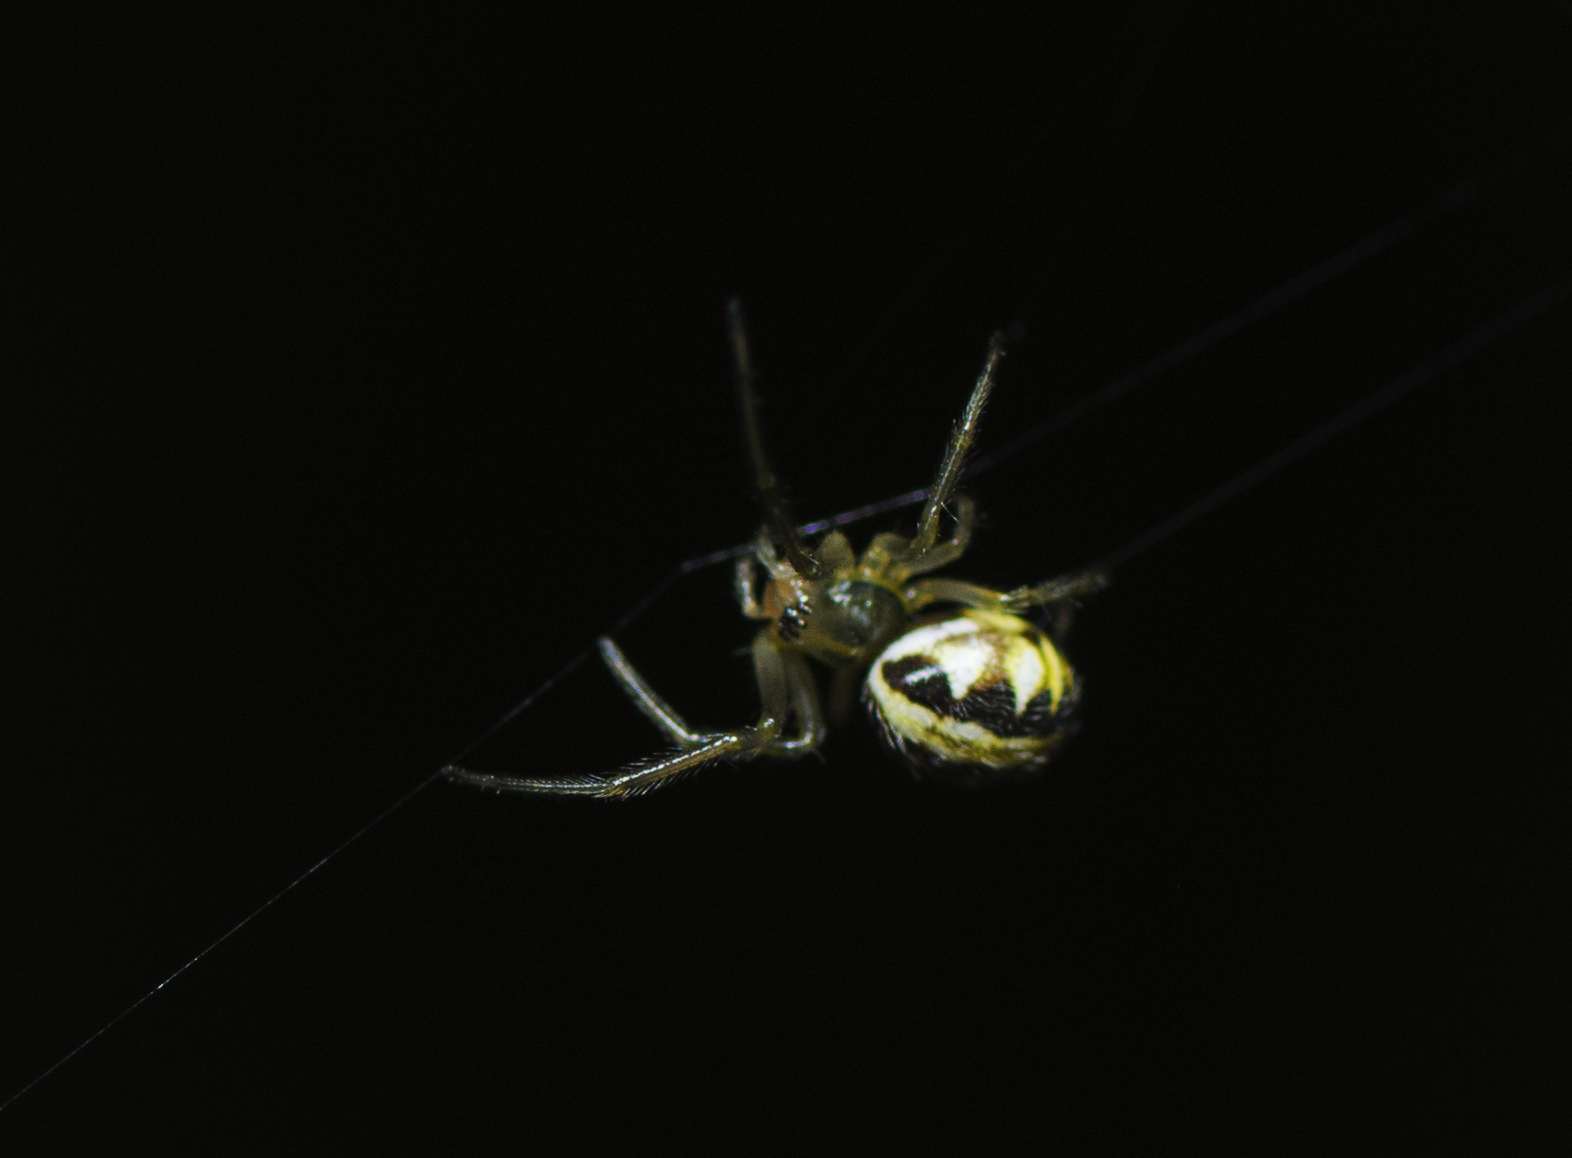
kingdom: Animalia
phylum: Arthropoda
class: Arachnida
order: Araneae
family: Araneidae
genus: Phonognatha
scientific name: Phonognatha graeffei
